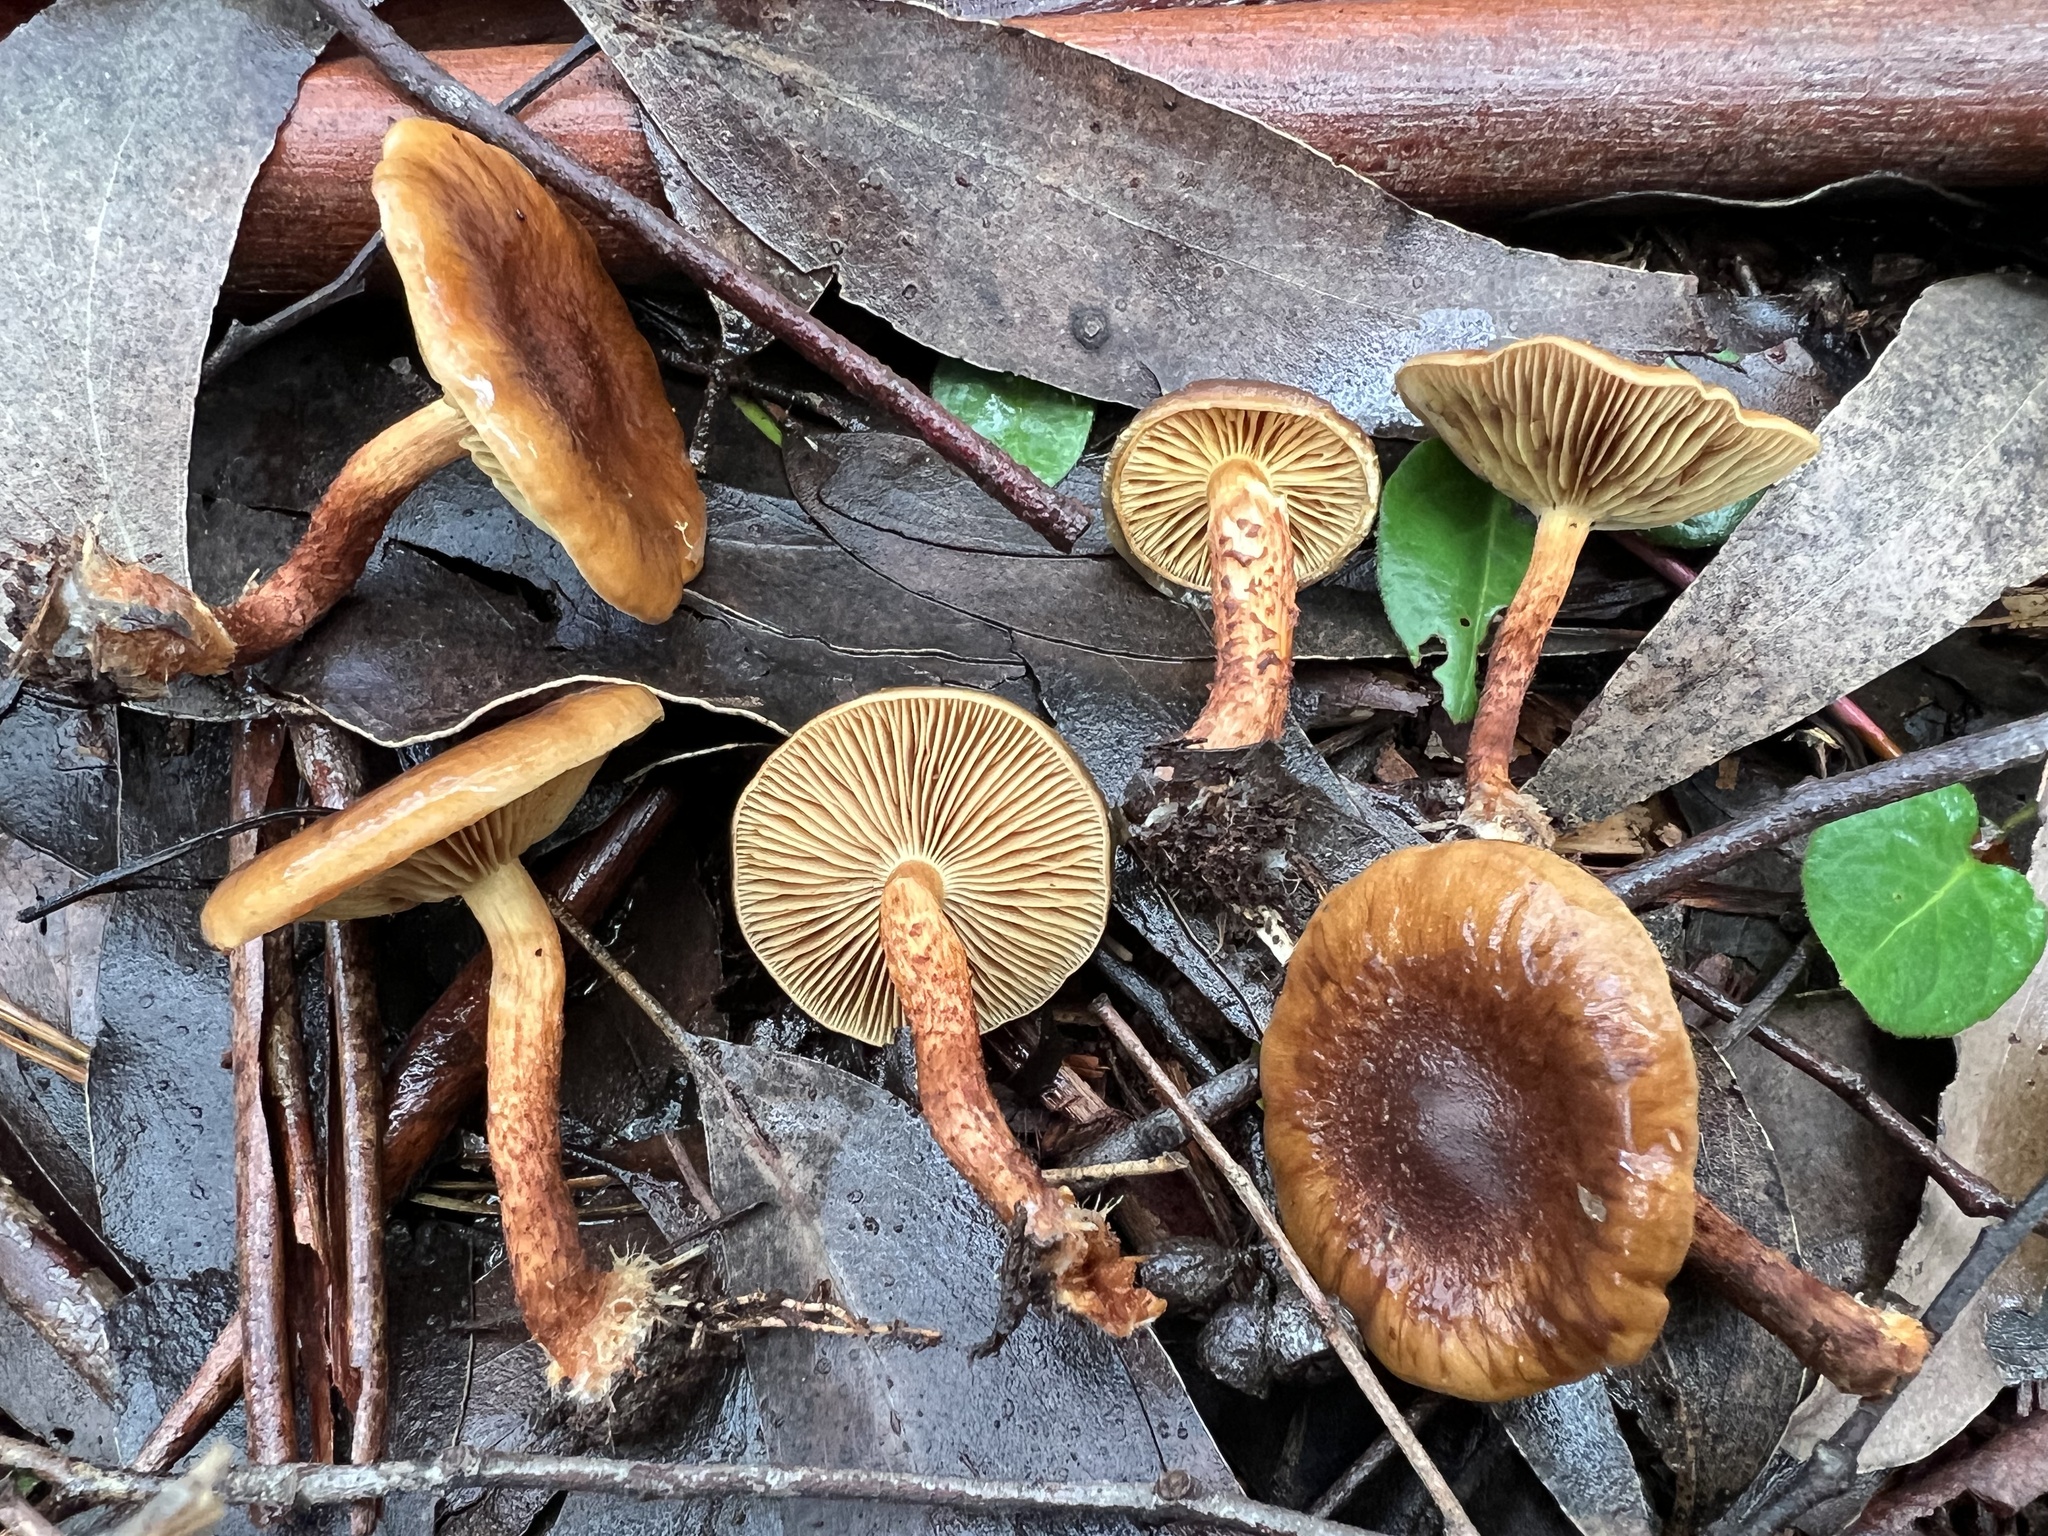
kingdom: Fungi
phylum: Basidiomycota
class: Agaricomycetes
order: Agaricales
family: Strophariaceae
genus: Pholiota
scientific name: Pholiota multicingulata
